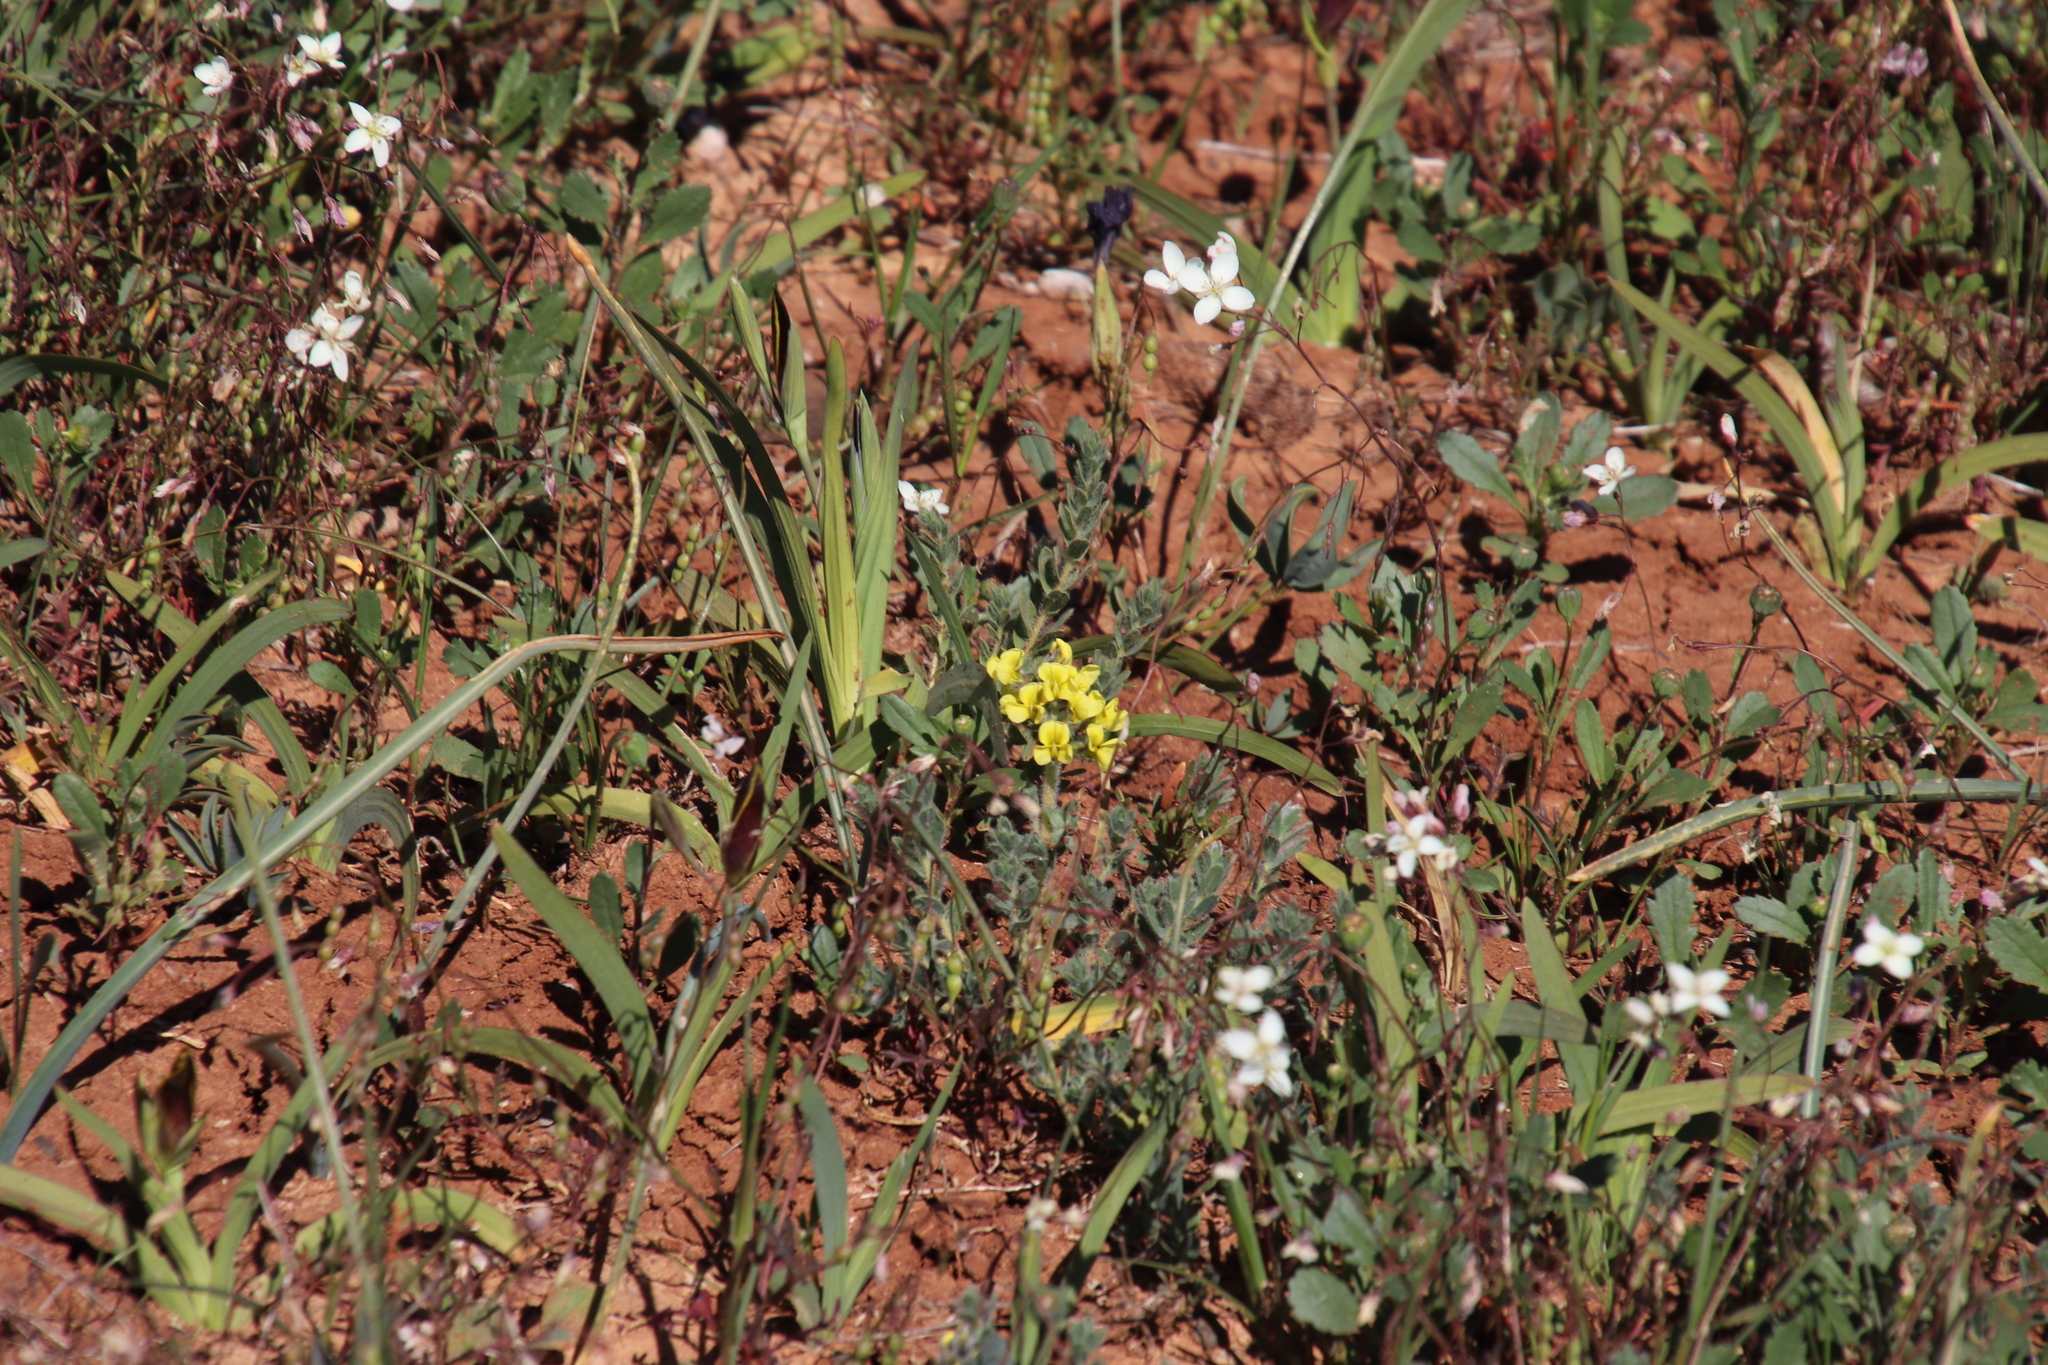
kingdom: Plantae
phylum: Tracheophyta
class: Magnoliopsida
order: Fabales
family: Fabaceae
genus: Euchlora
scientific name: Euchlora hirsuta
